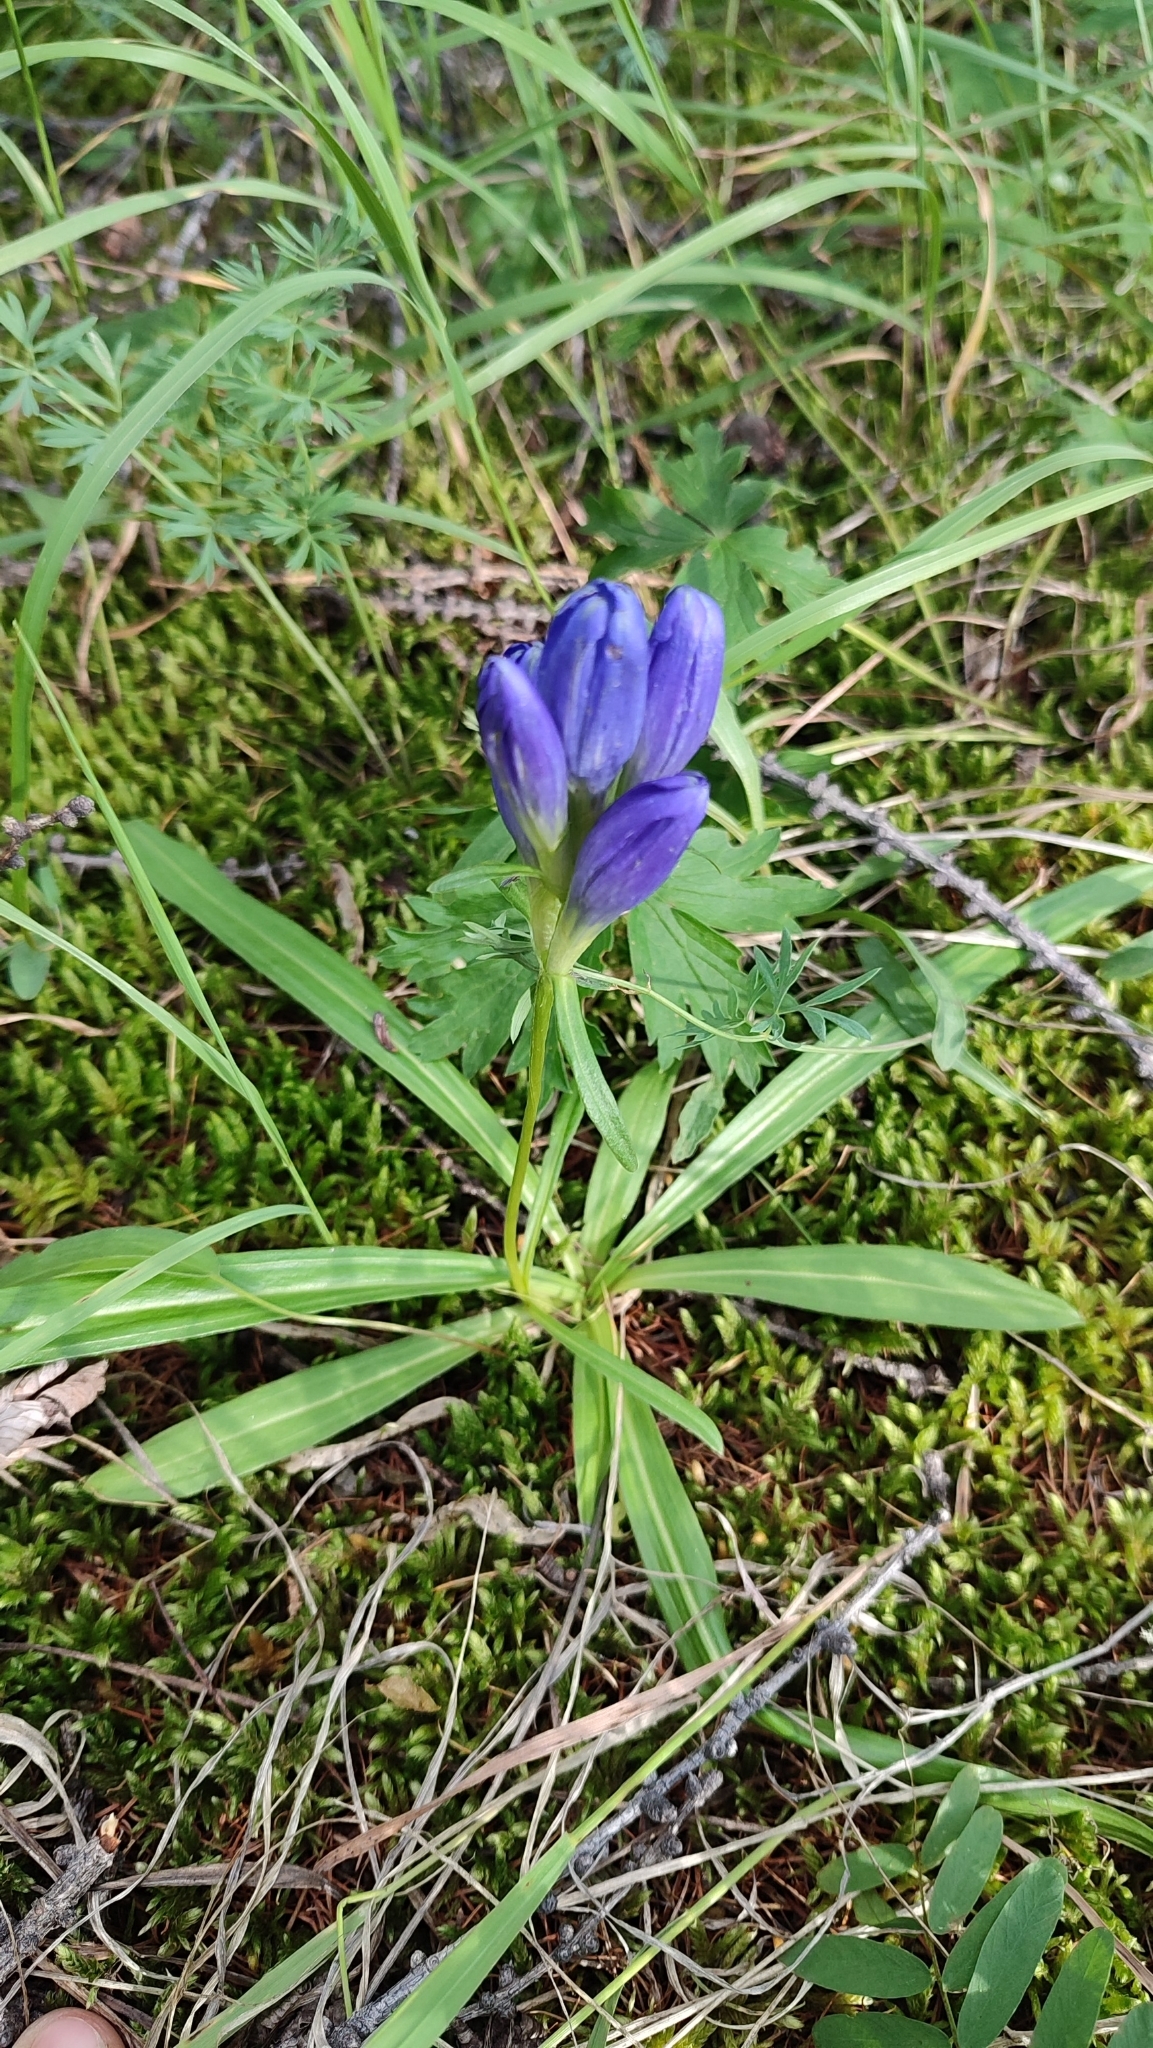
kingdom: Plantae
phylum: Tracheophyta
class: Magnoliopsida
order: Gentianales
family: Gentianaceae
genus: Gentiana
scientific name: Gentiana decumbens
